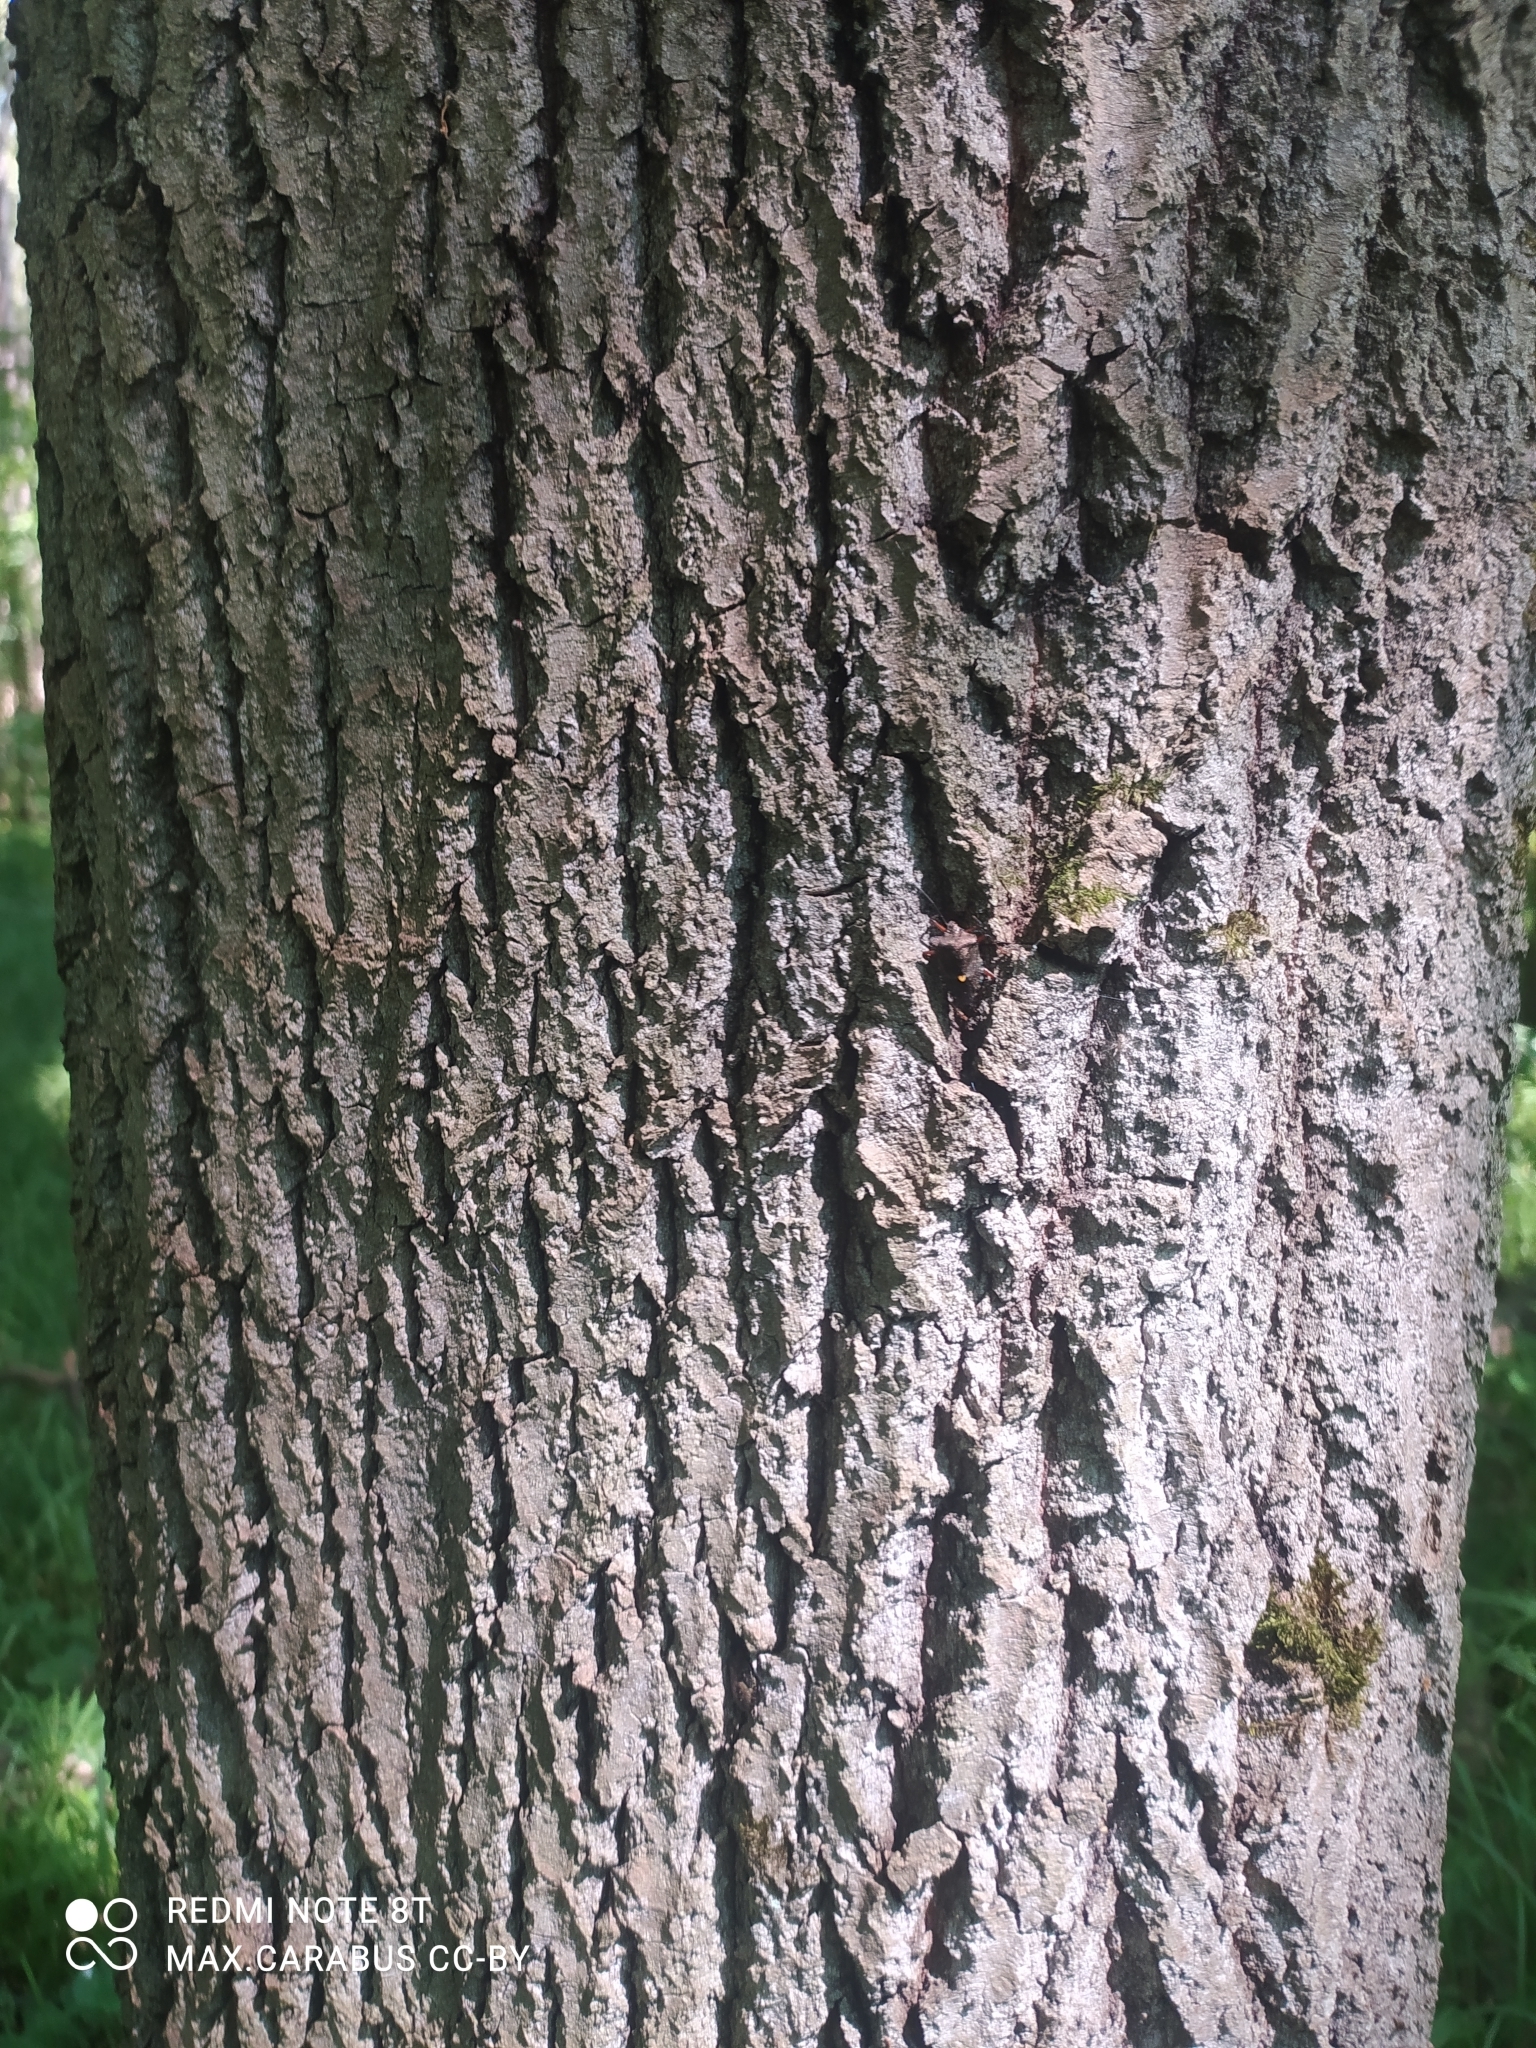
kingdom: Plantae
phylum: Tracheophyta
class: Magnoliopsida
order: Malpighiales
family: Salicaceae
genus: Populus
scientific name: Populus tremula
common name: European aspen
